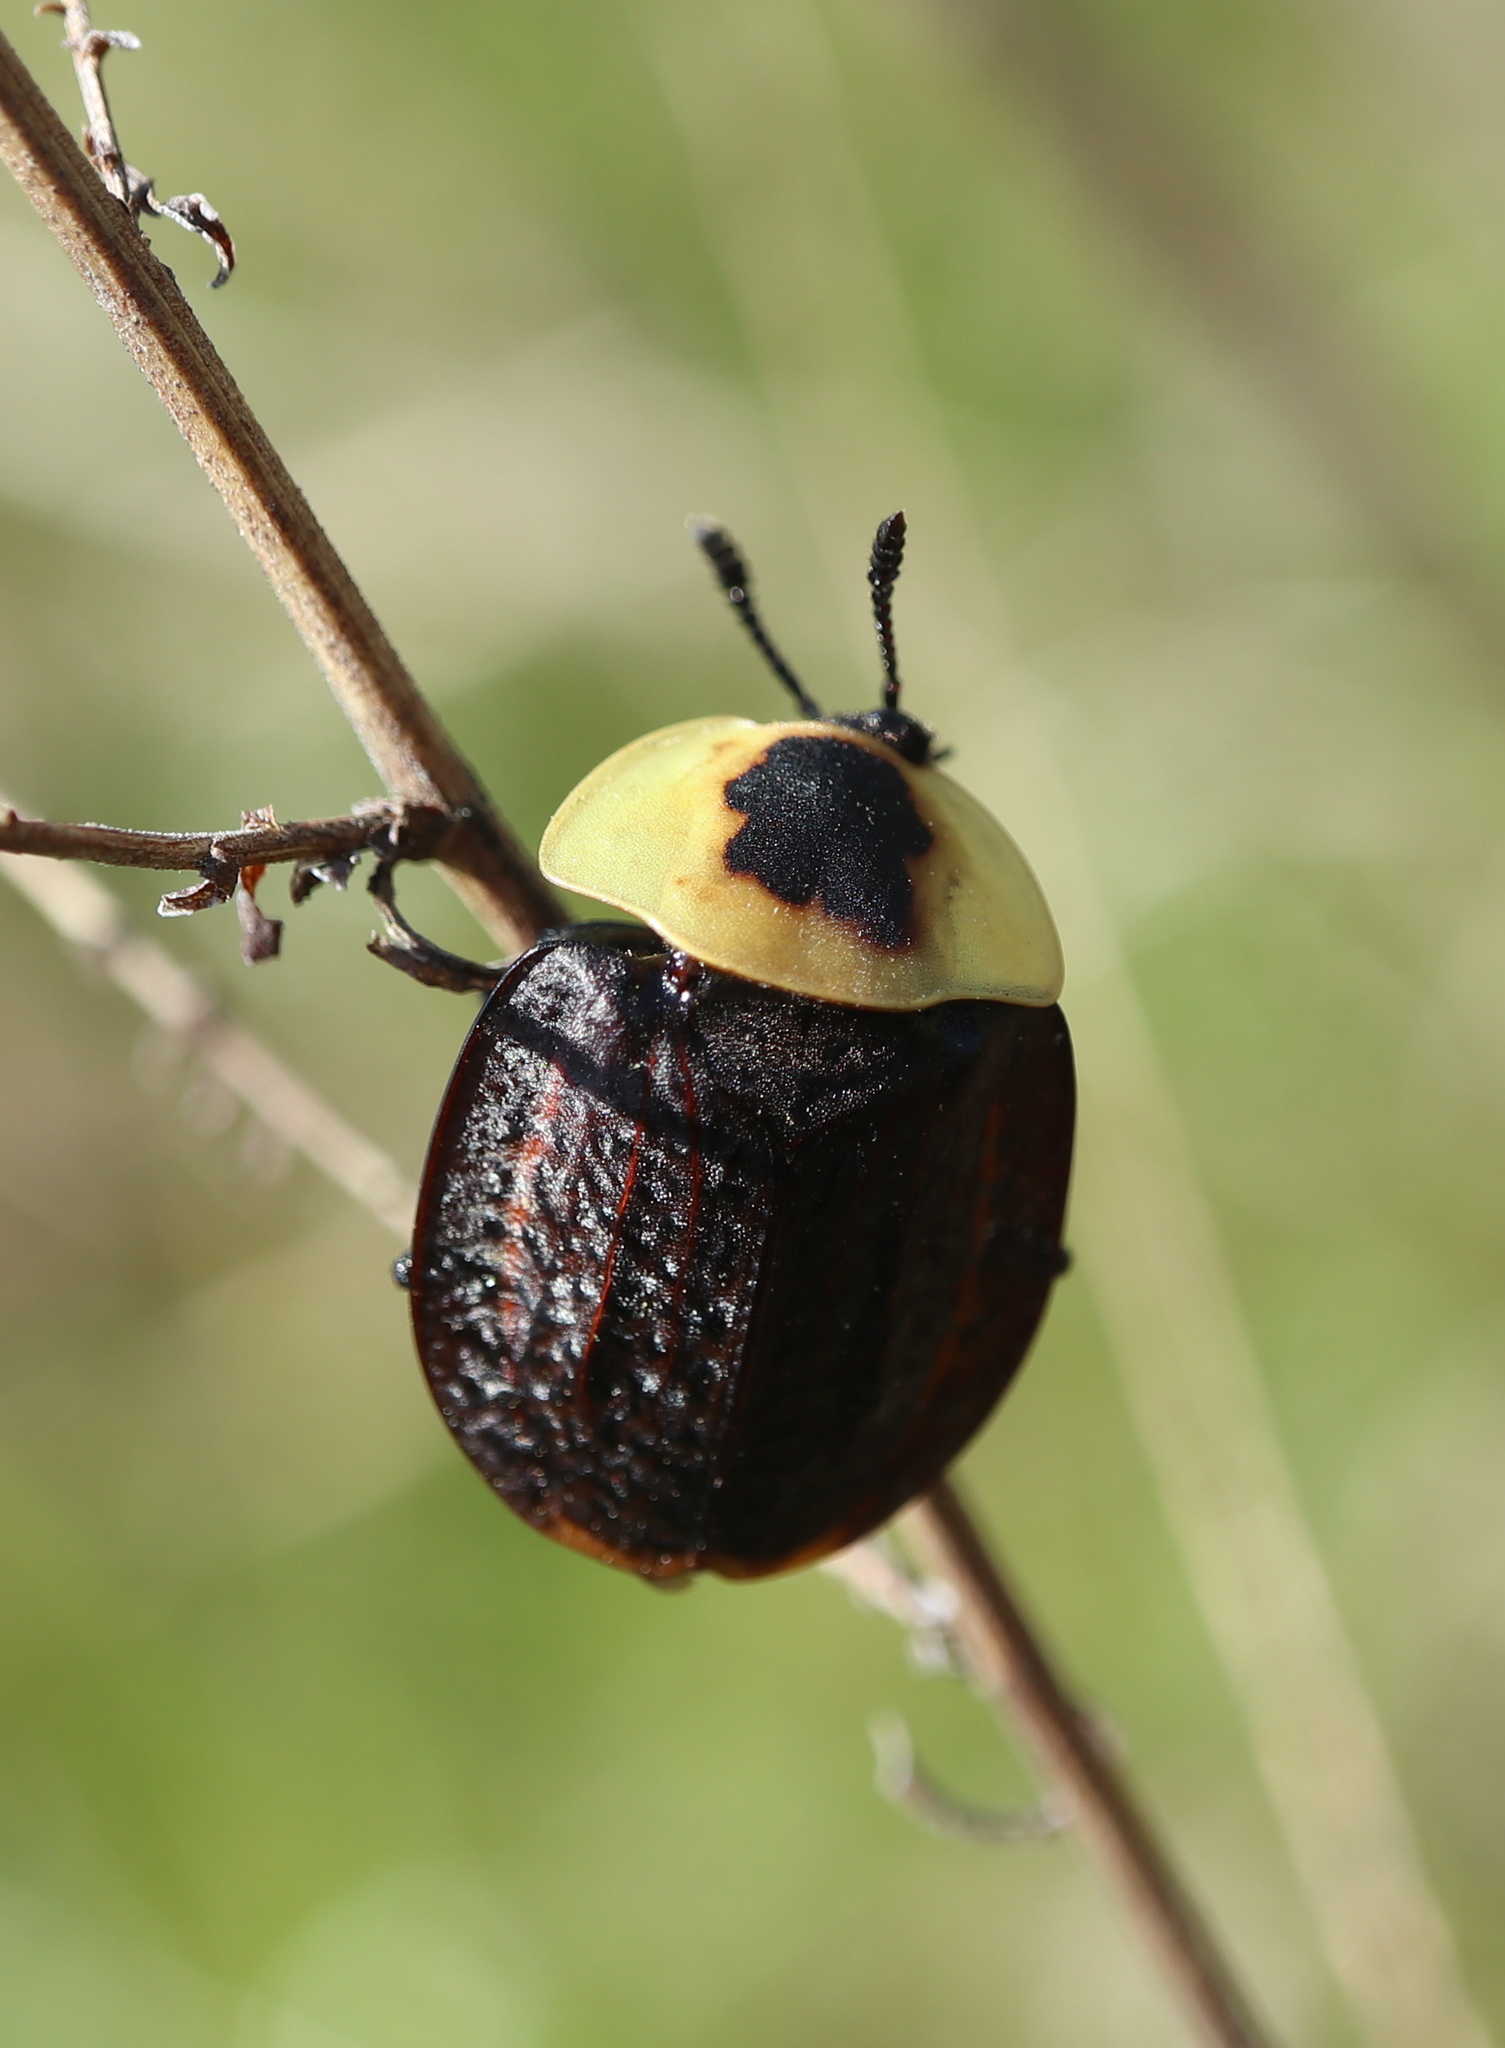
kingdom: Animalia
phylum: Arthropoda
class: Insecta
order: Coleoptera
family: Staphylinidae
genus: Necrophila
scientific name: Necrophila americana
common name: American carrion beetle
